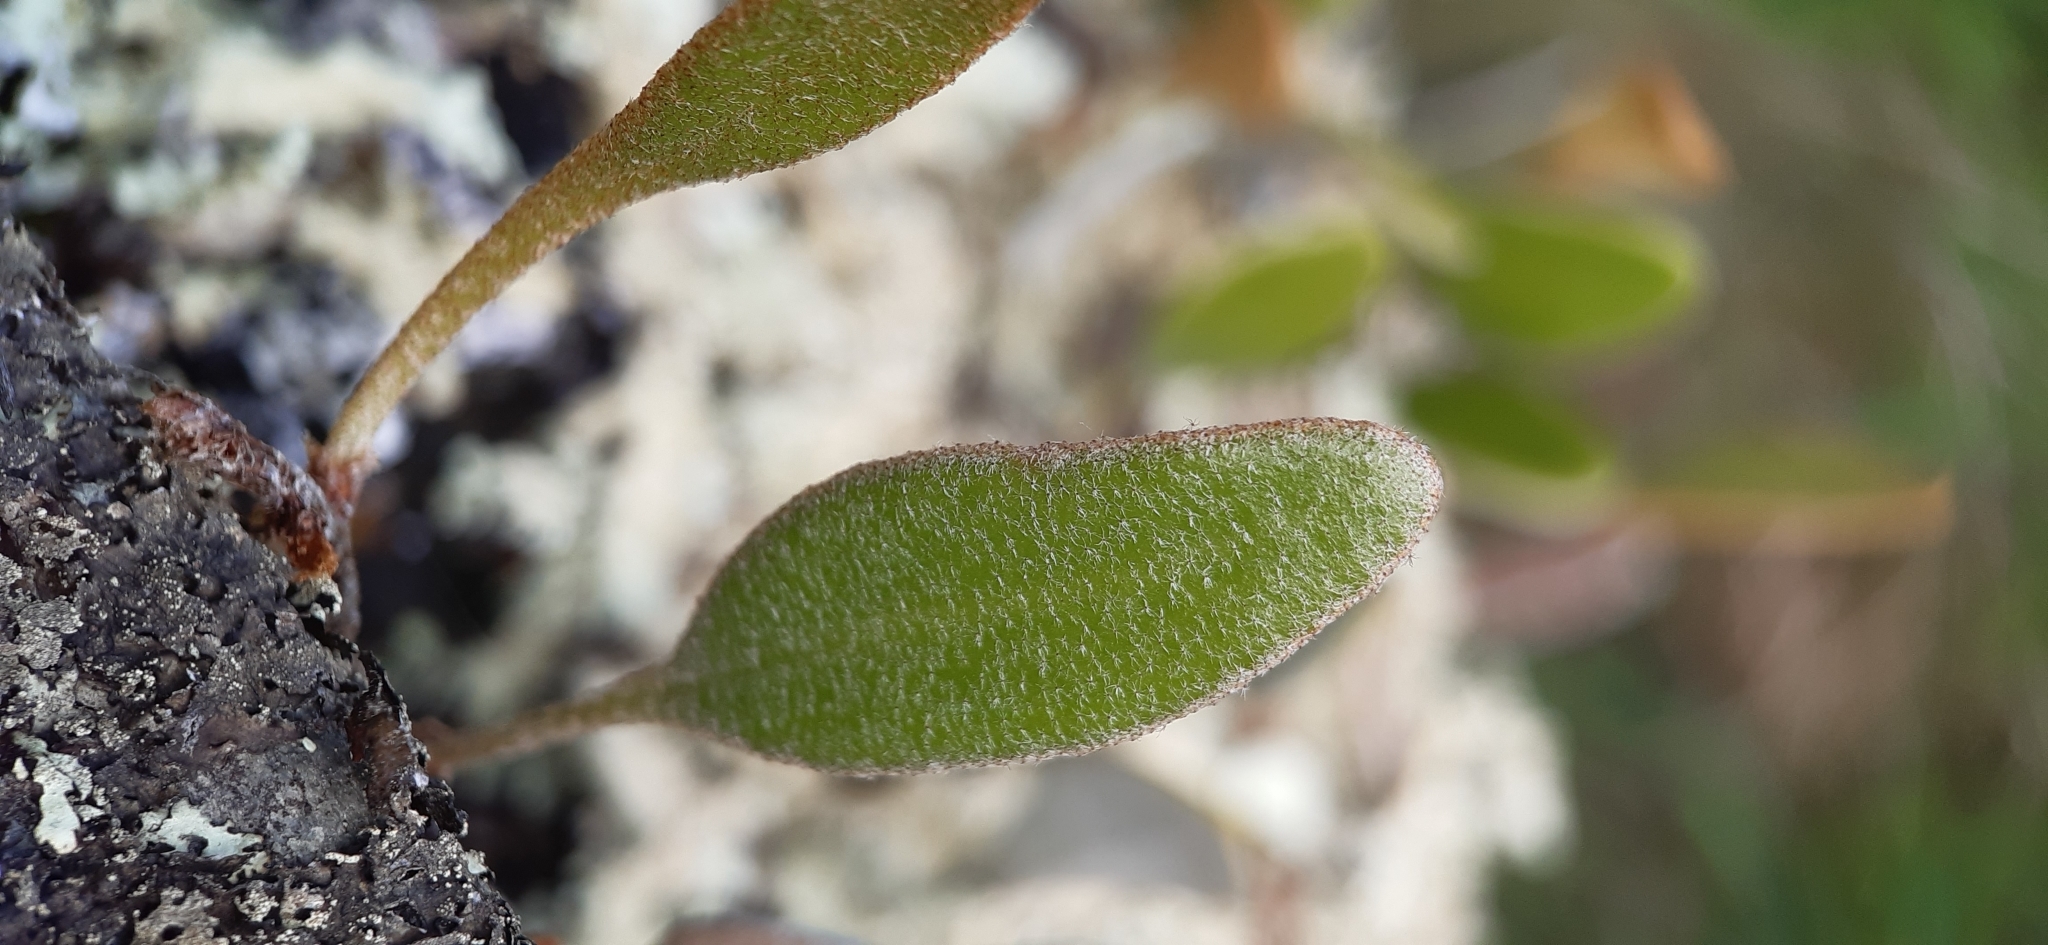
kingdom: Plantae
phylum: Tracheophyta
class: Polypodiopsida
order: Polypodiales
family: Polypodiaceae
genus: Pyrrosia
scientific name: Pyrrosia eleagnifolia
